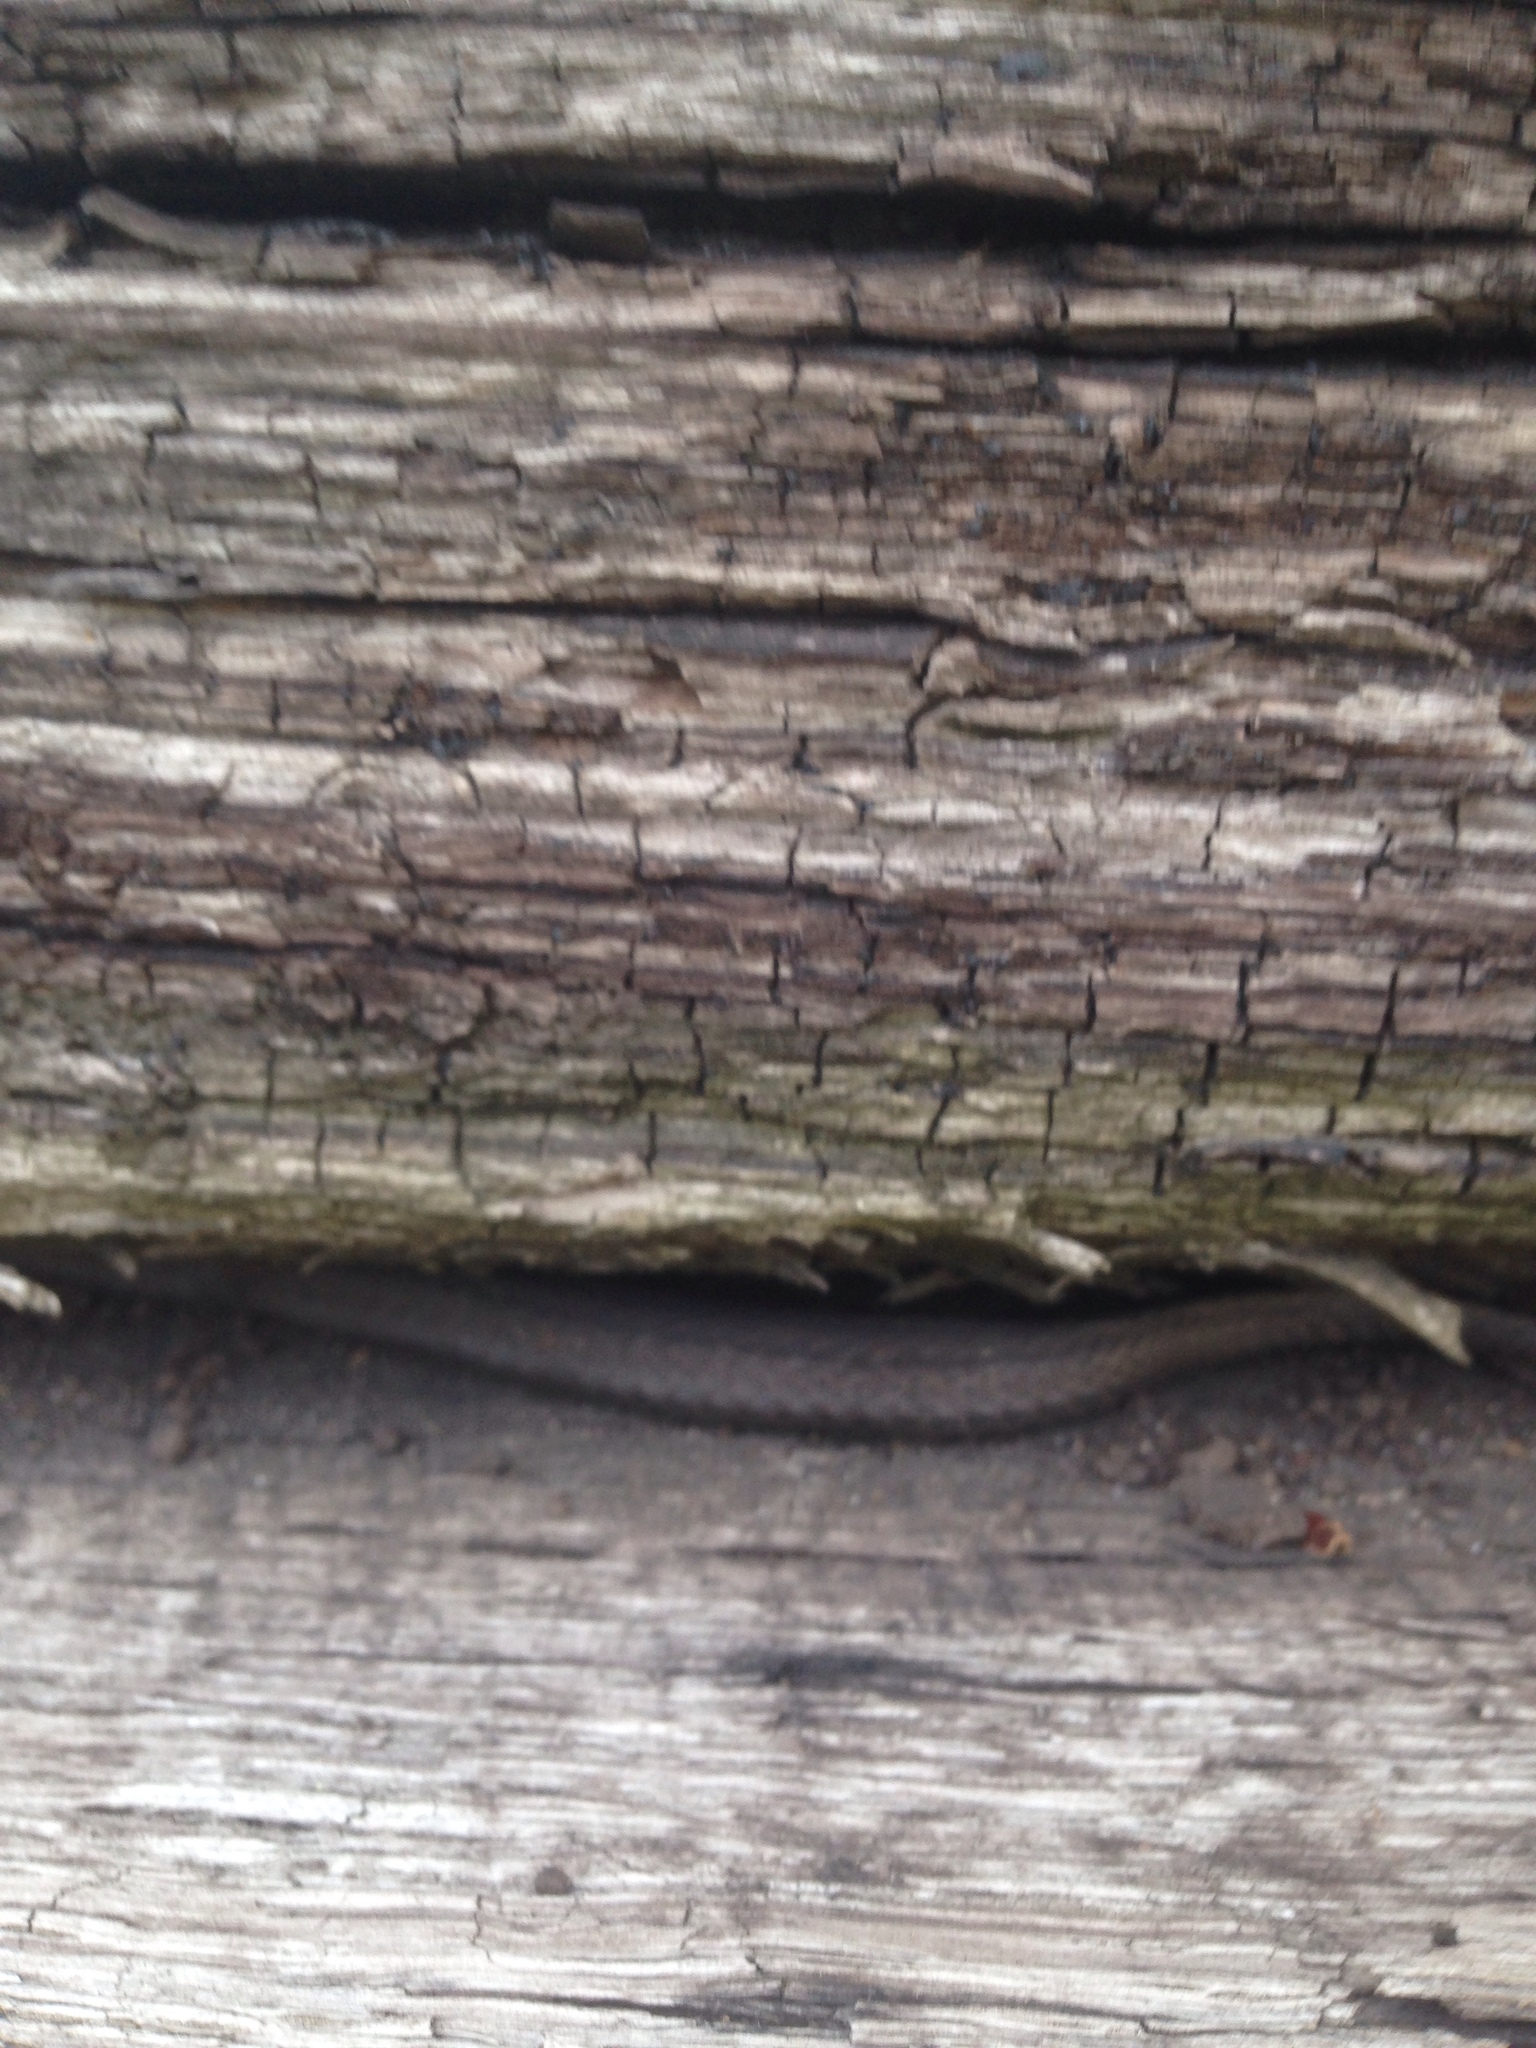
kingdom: Animalia
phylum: Chordata
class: Squamata
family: Colubridae
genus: Storeria
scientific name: Storeria occipitomaculata
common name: Redbelly snake
